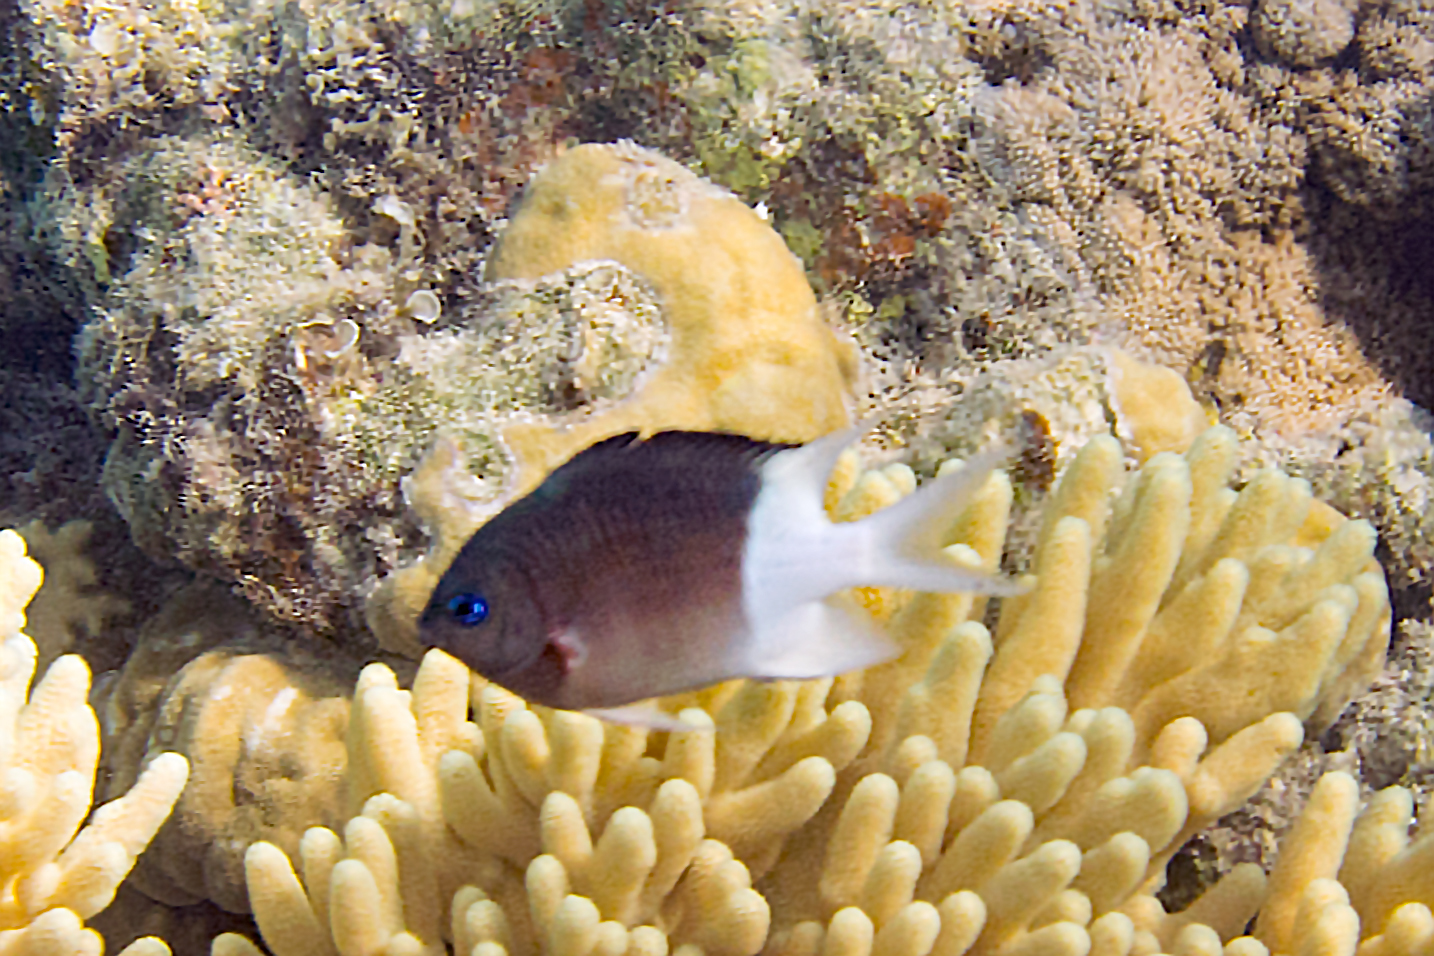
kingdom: Animalia
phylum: Chordata
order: Perciformes
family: Pomacentridae
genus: Acanthochromis
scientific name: Acanthochromis polyacanthus
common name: Spiny chromis
